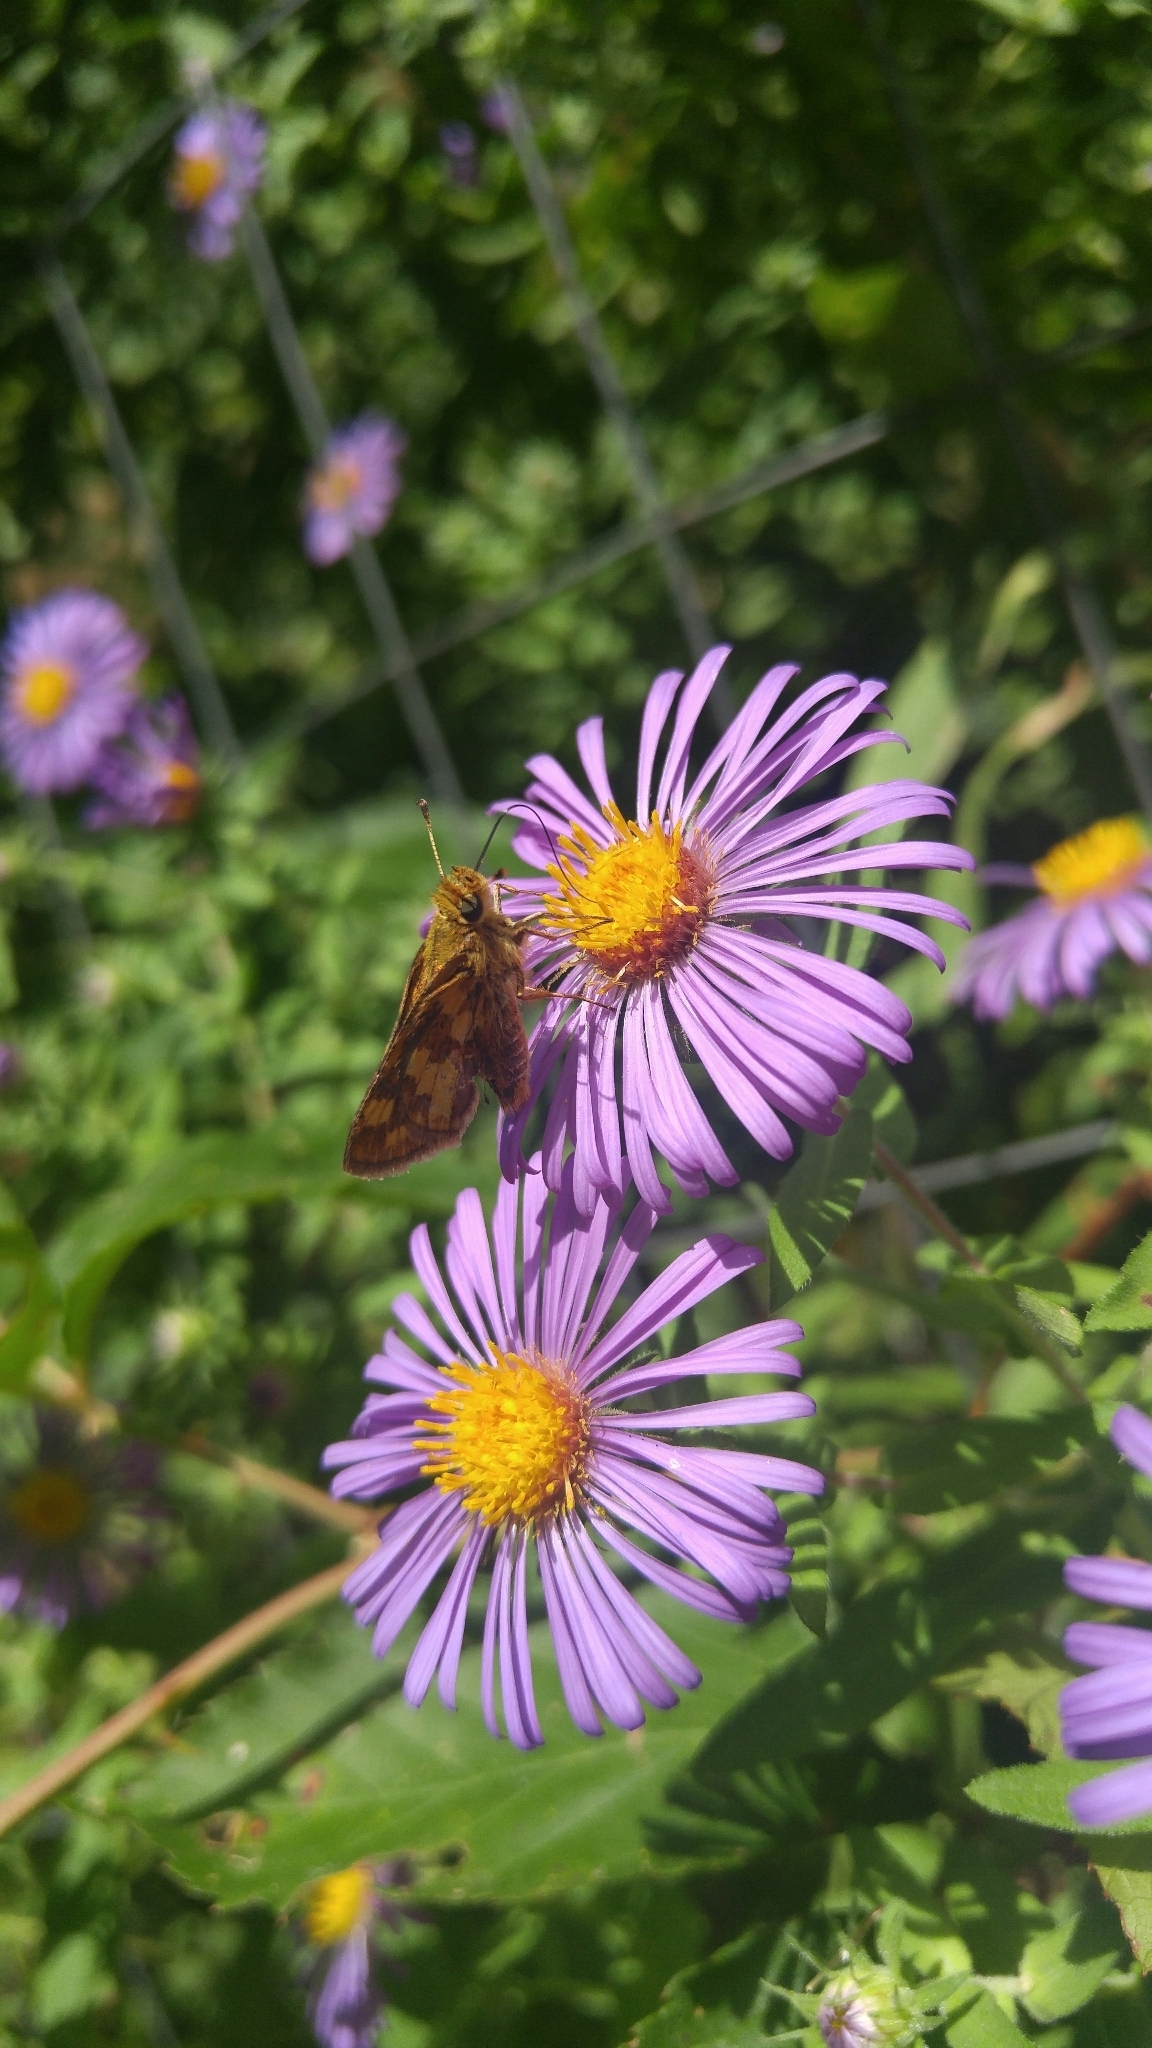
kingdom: Animalia
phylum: Arthropoda
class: Insecta
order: Lepidoptera
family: Hesperiidae
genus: Polites
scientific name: Polites coras
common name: Peck's skipper
